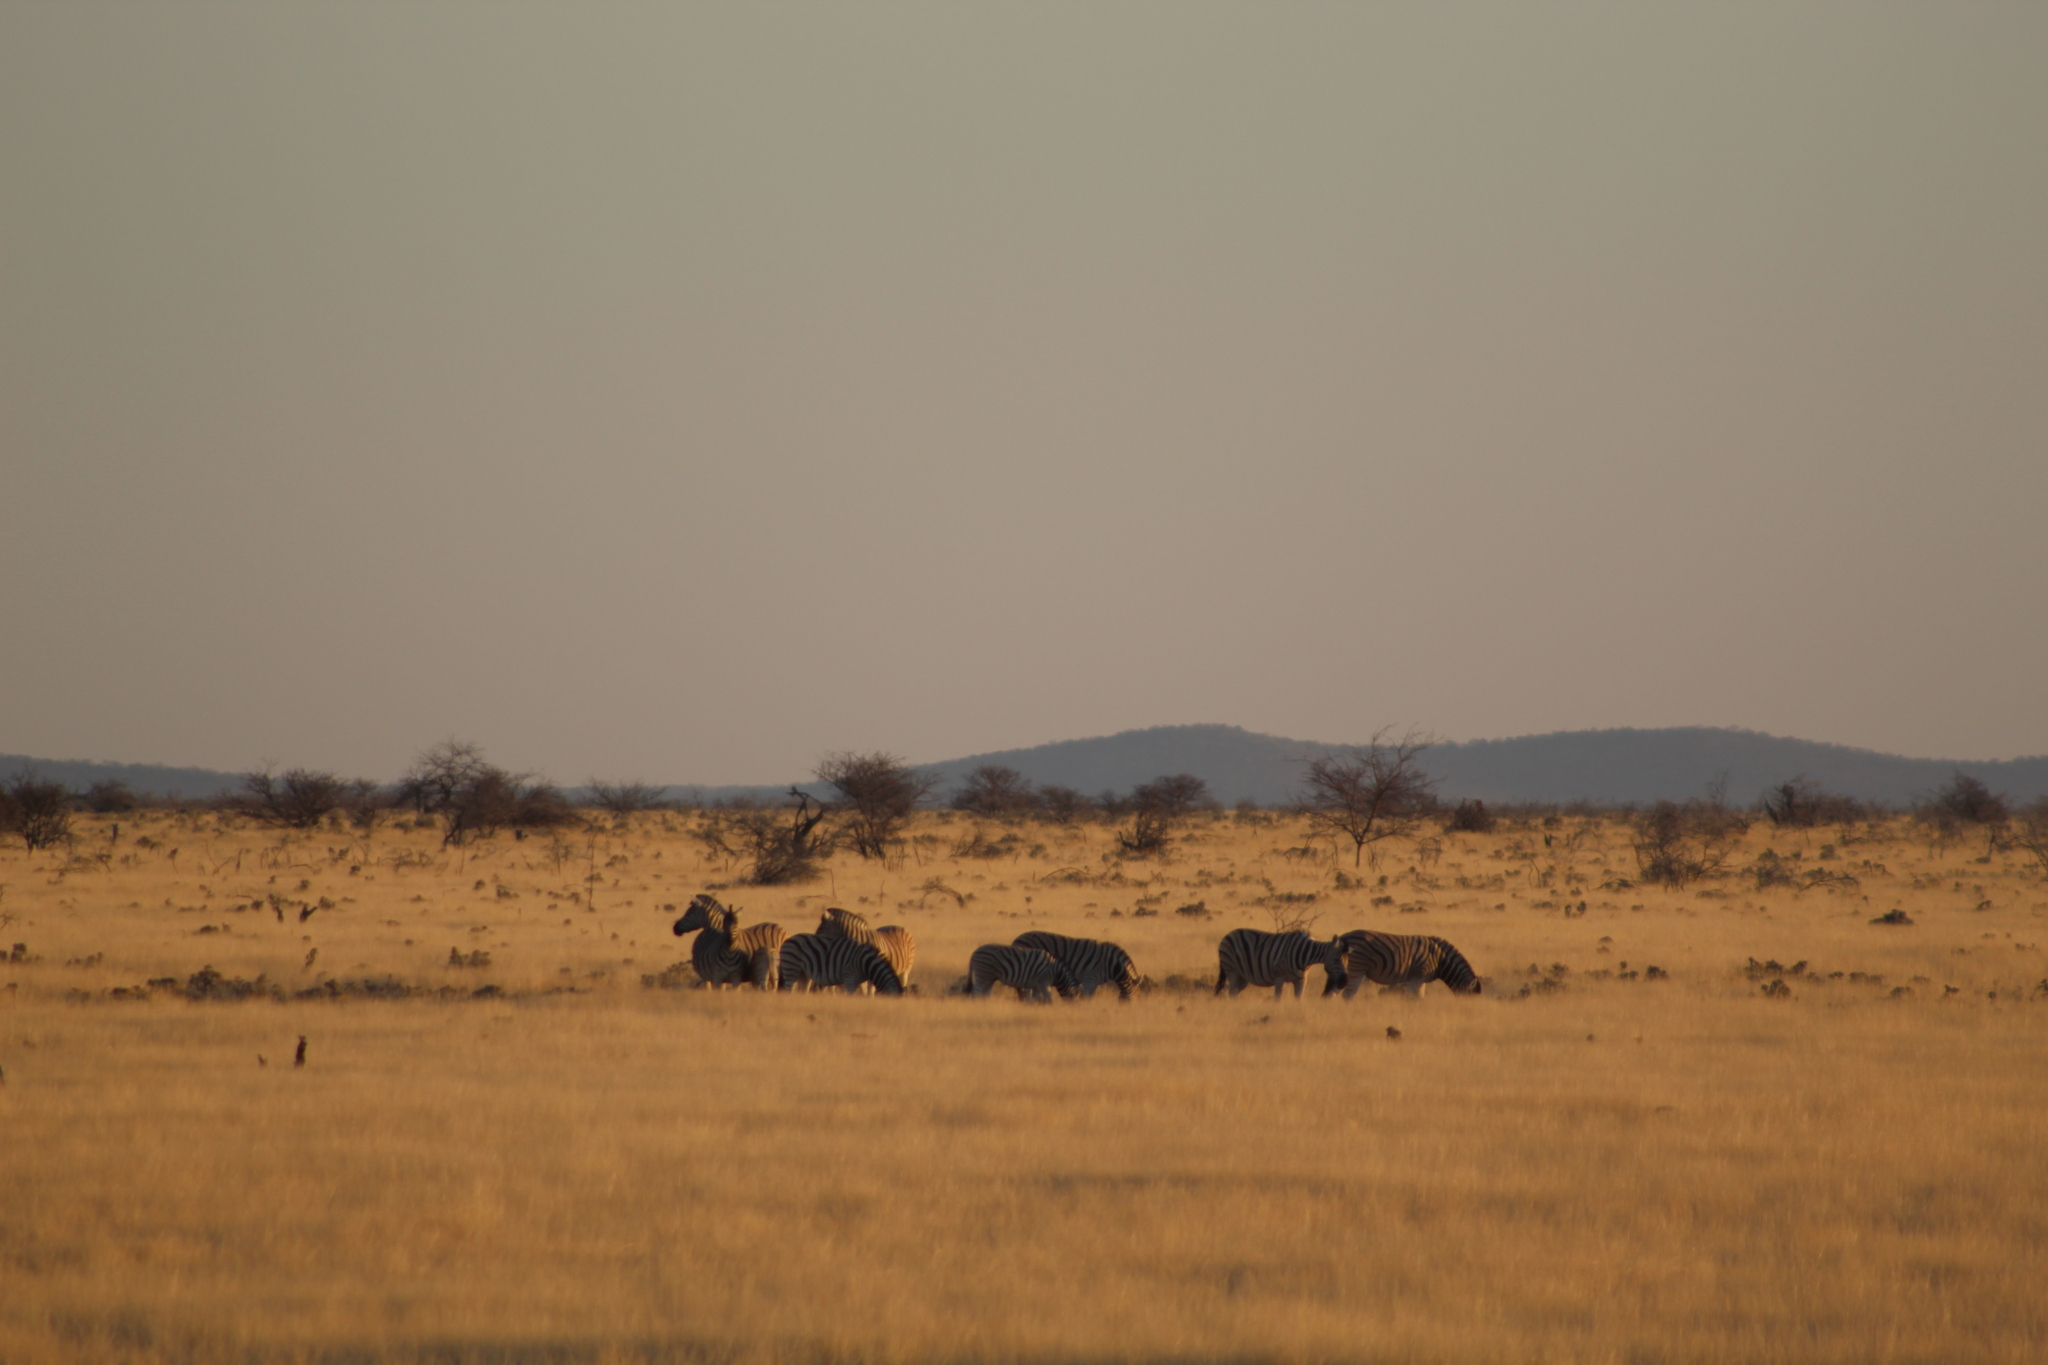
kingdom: Animalia
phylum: Chordata
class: Mammalia
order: Perissodactyla
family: Equidae
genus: Equus
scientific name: Equus quagga
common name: Plains zebra
